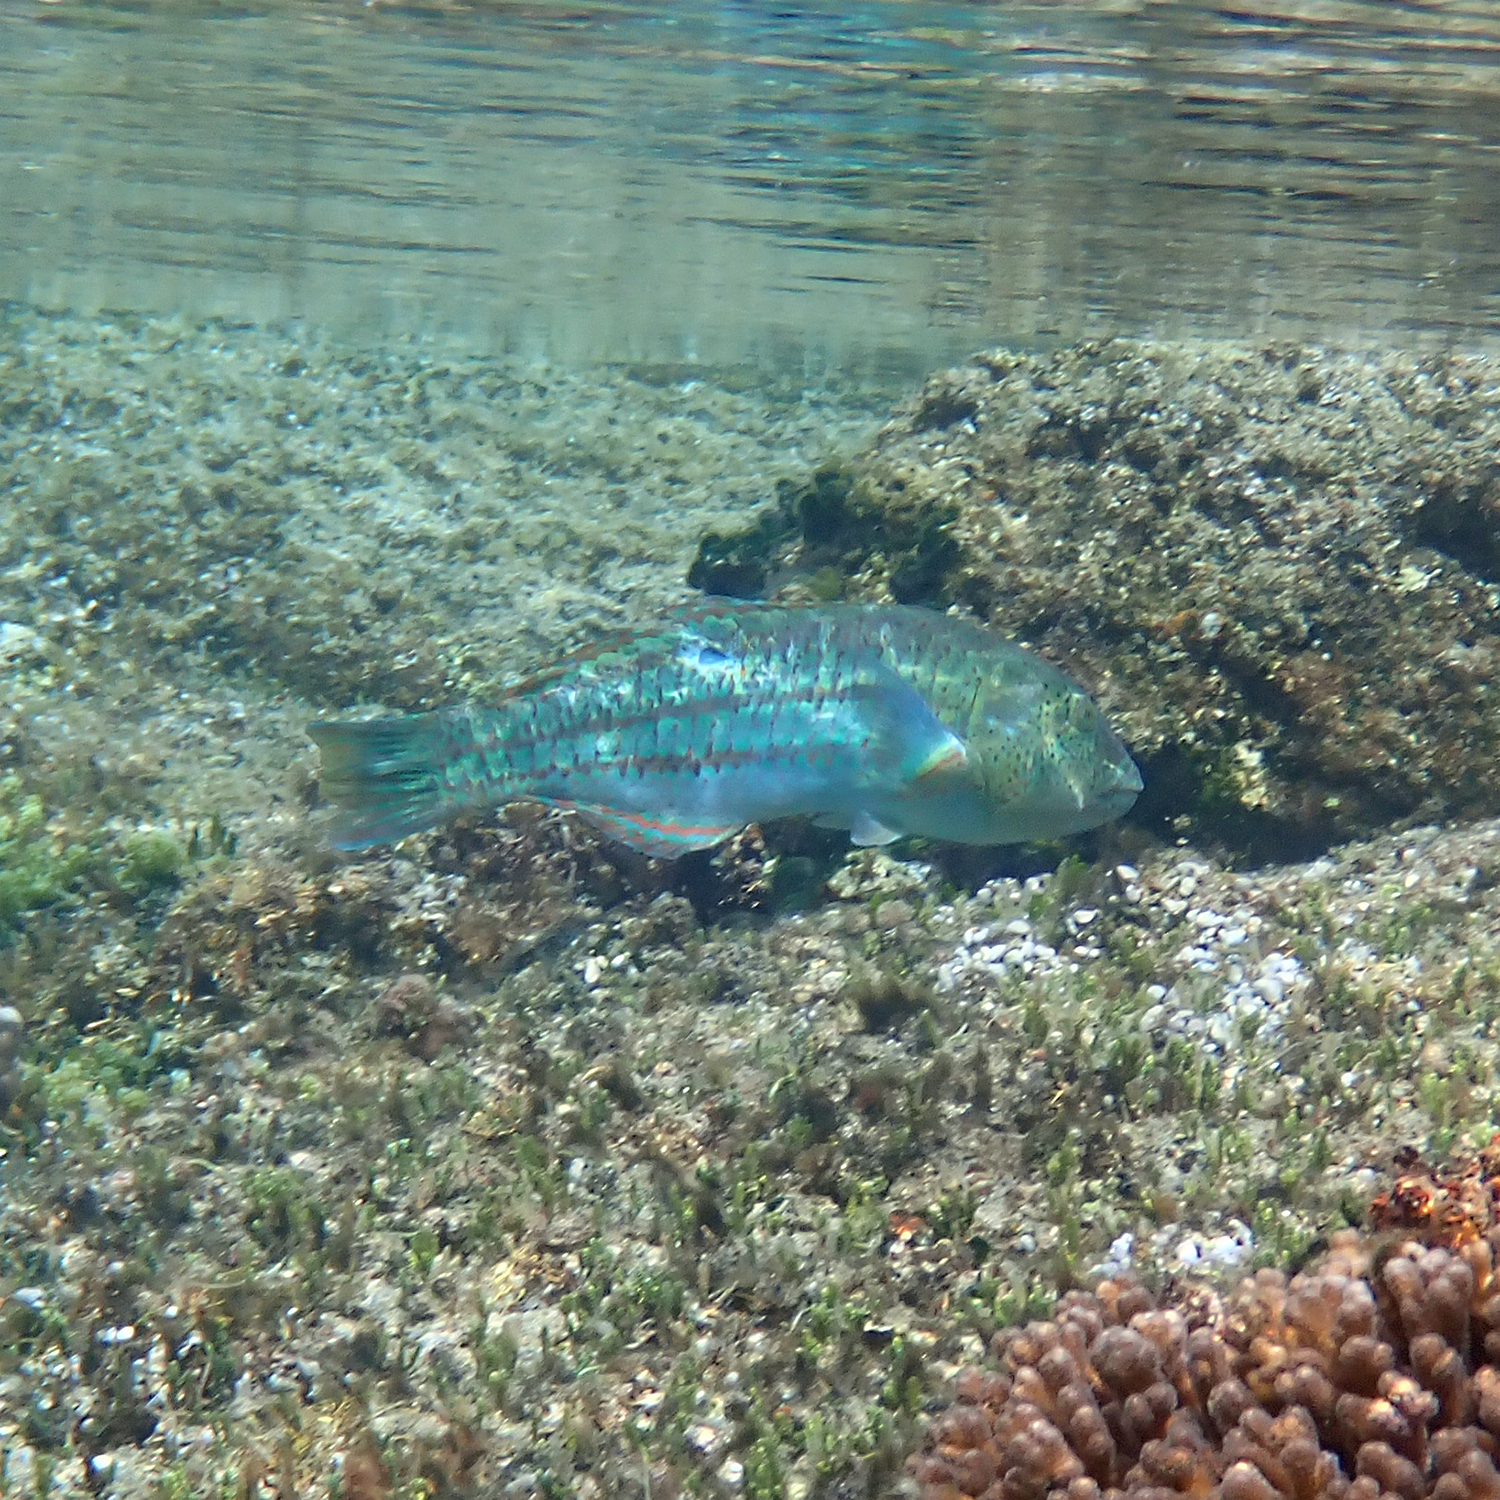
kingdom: Animalia
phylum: Chordata
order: Perciformes
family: Labridae
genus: Thalassoma
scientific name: Thalassoma purpureum
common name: Parrotfish
